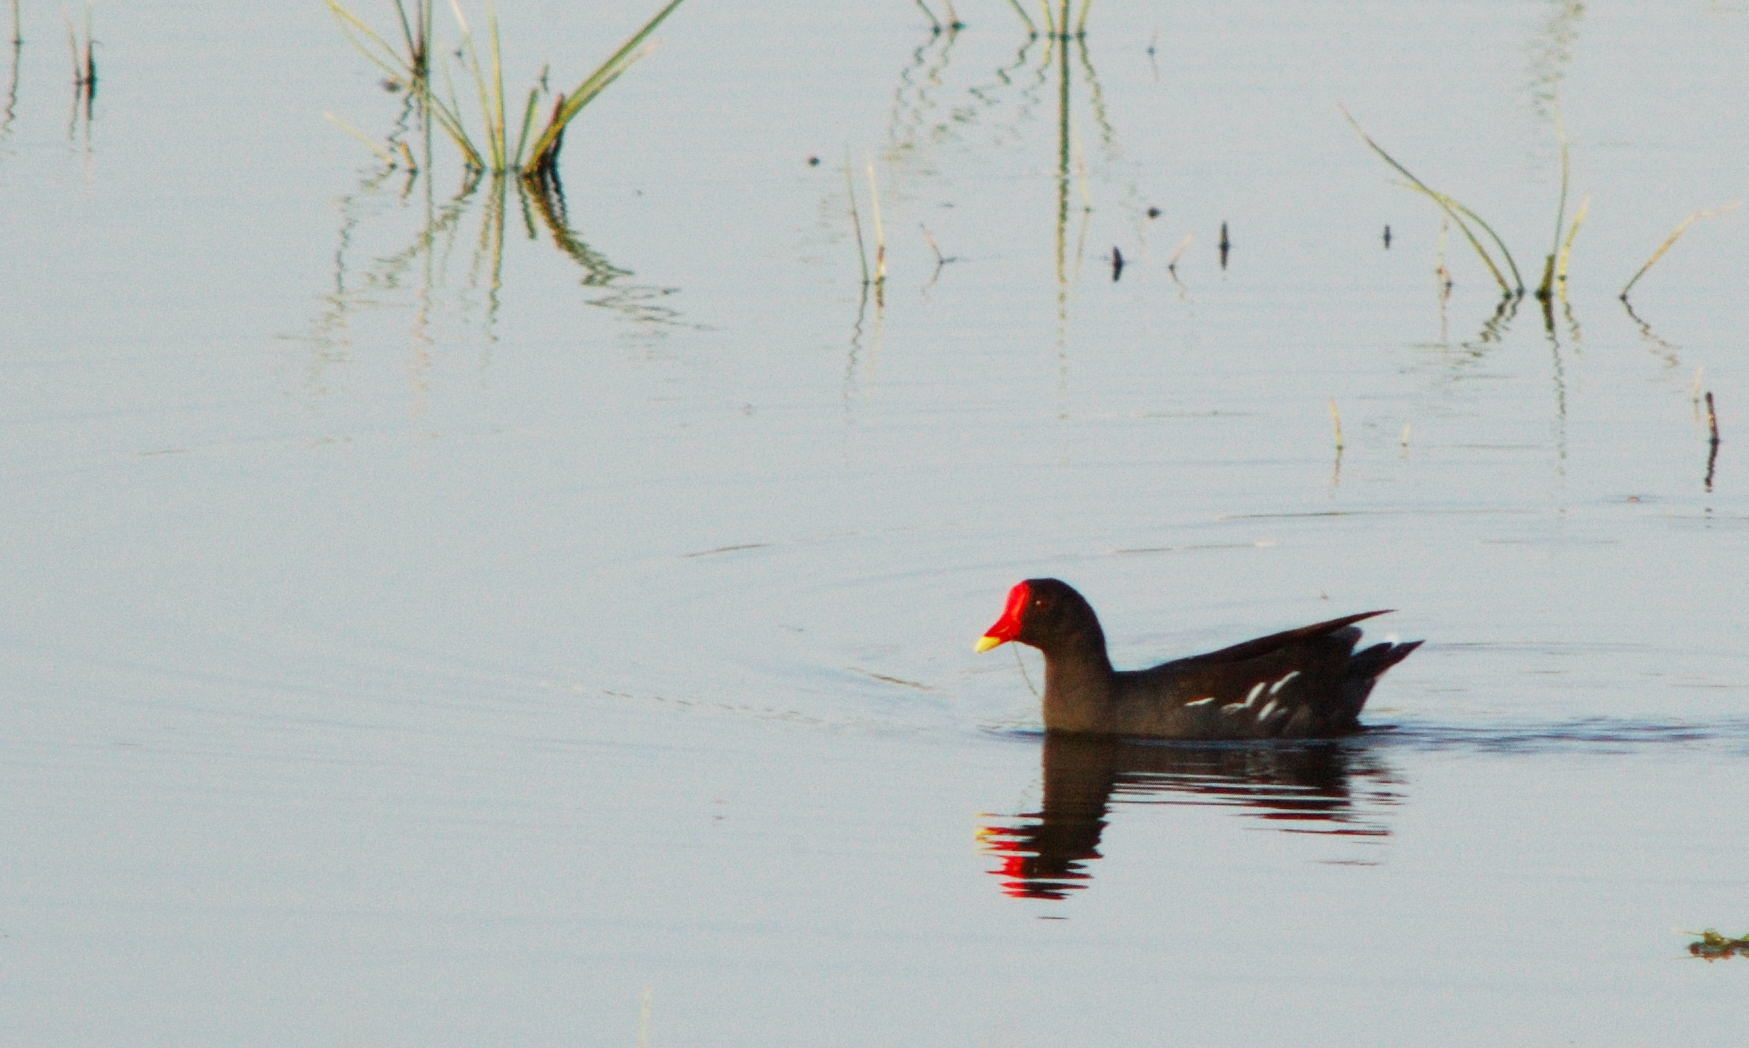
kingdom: Animalia
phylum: Chordata
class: Aves
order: Gruiformes
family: Rallidae
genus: Gallinula
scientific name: Gallinula chloropus
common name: Common moorhen
